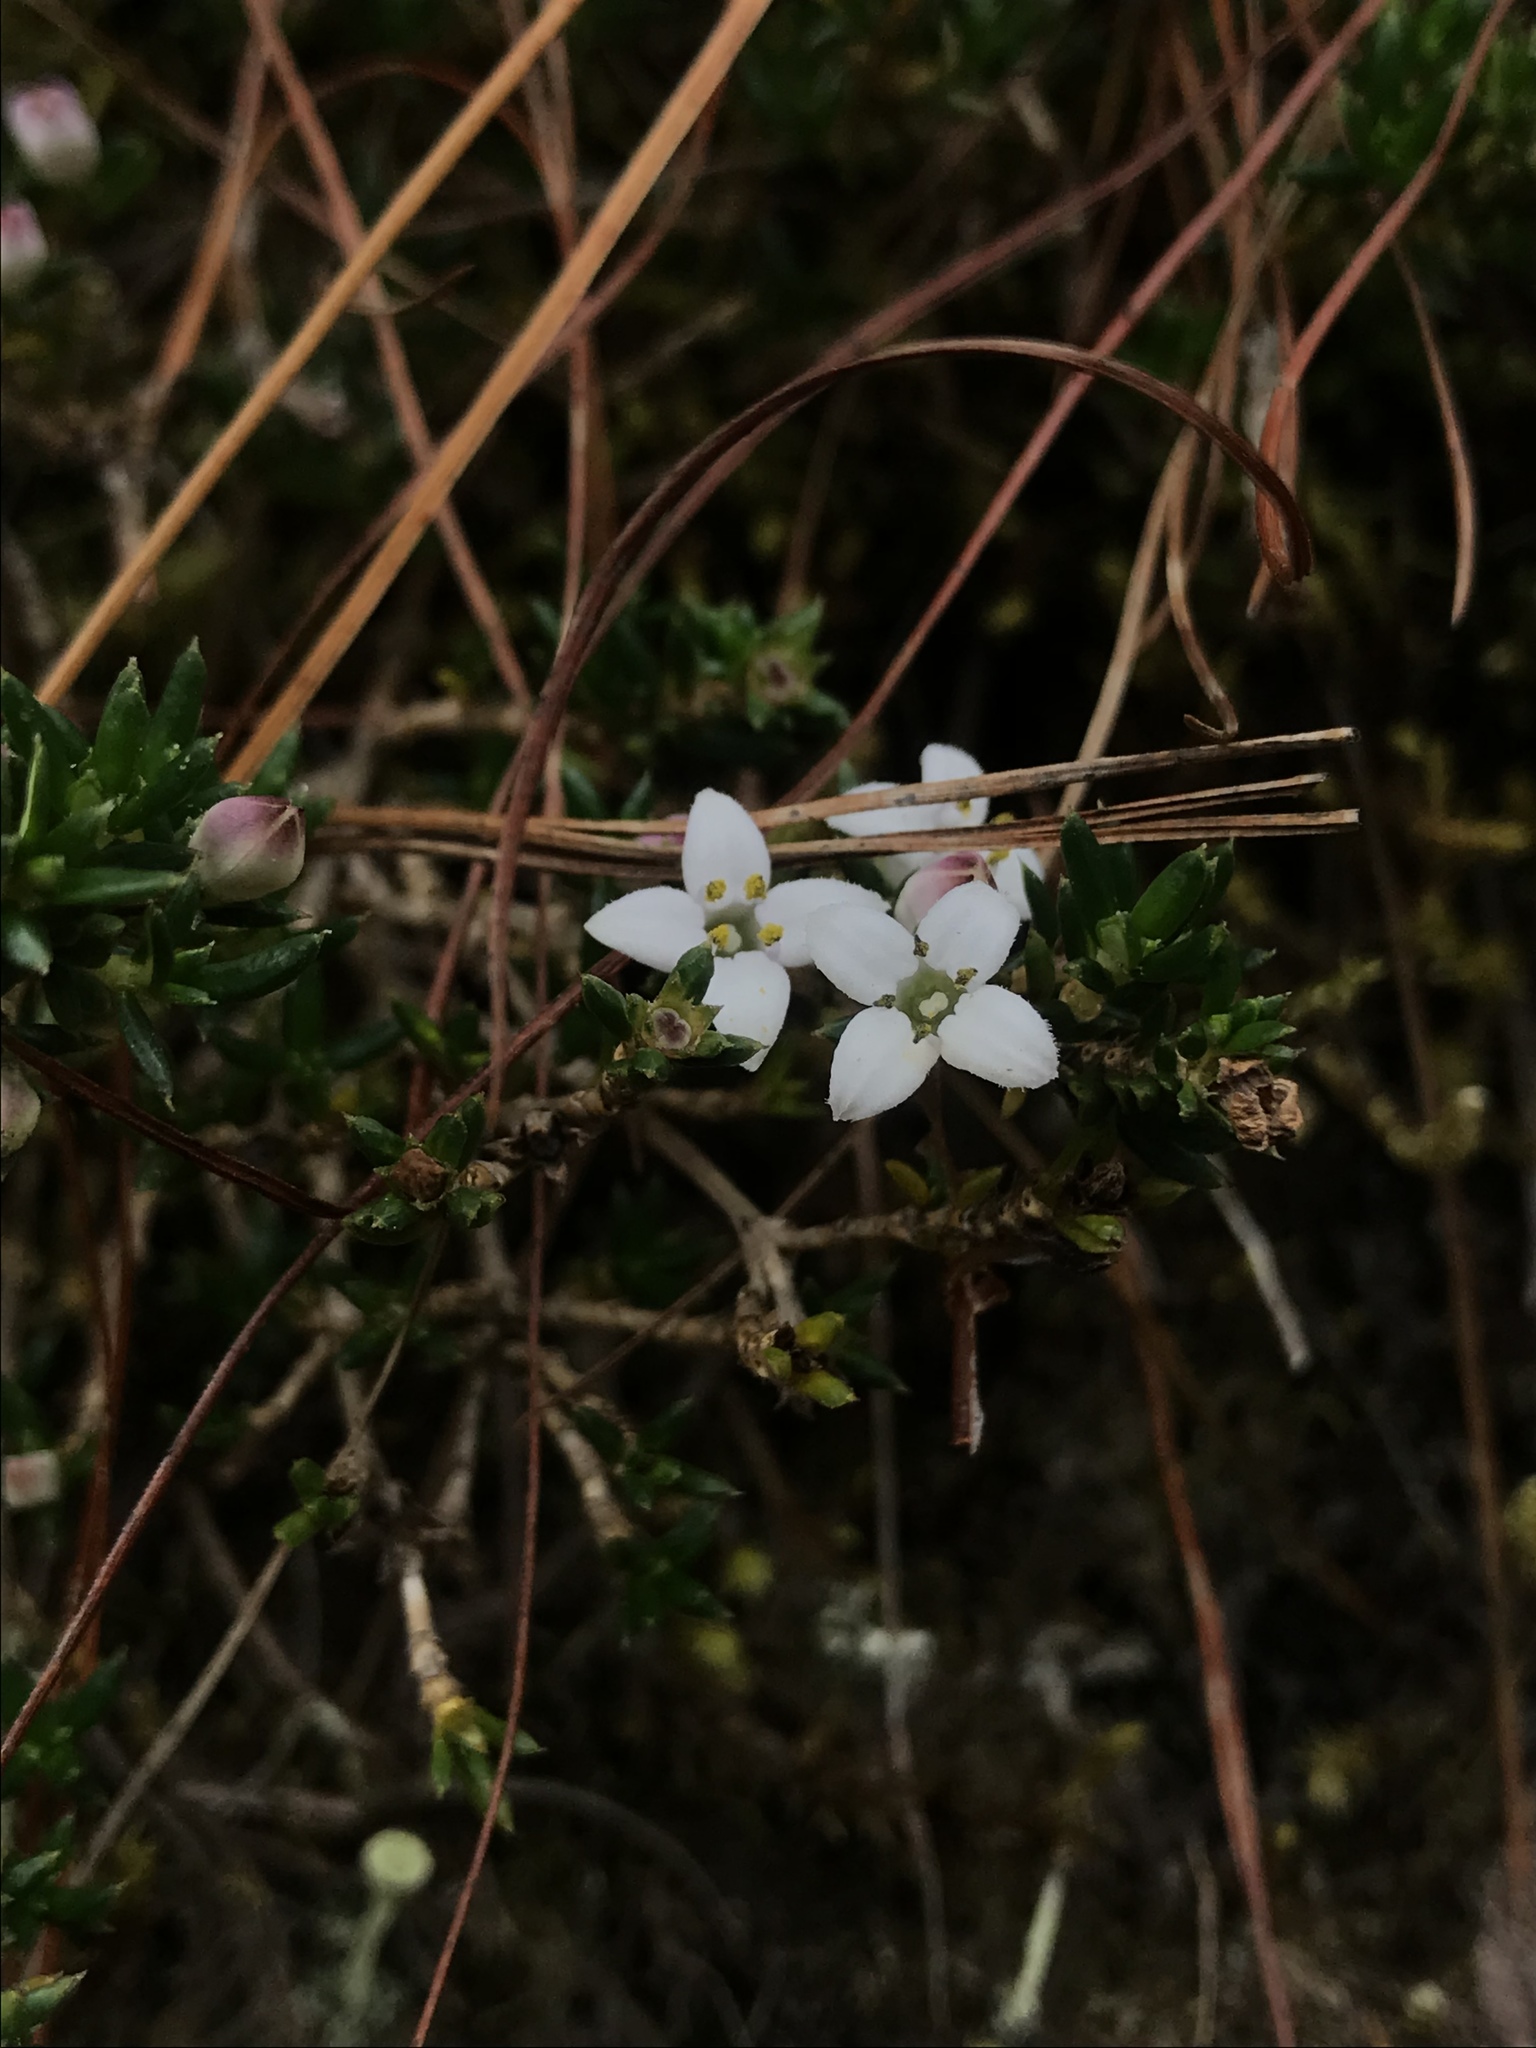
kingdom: Plantae
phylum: Tracheophyta
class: Magnoliopsida
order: Gentianales
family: Rubiaceae
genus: Arcytophyllum
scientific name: Arcytophyllum nitidum
